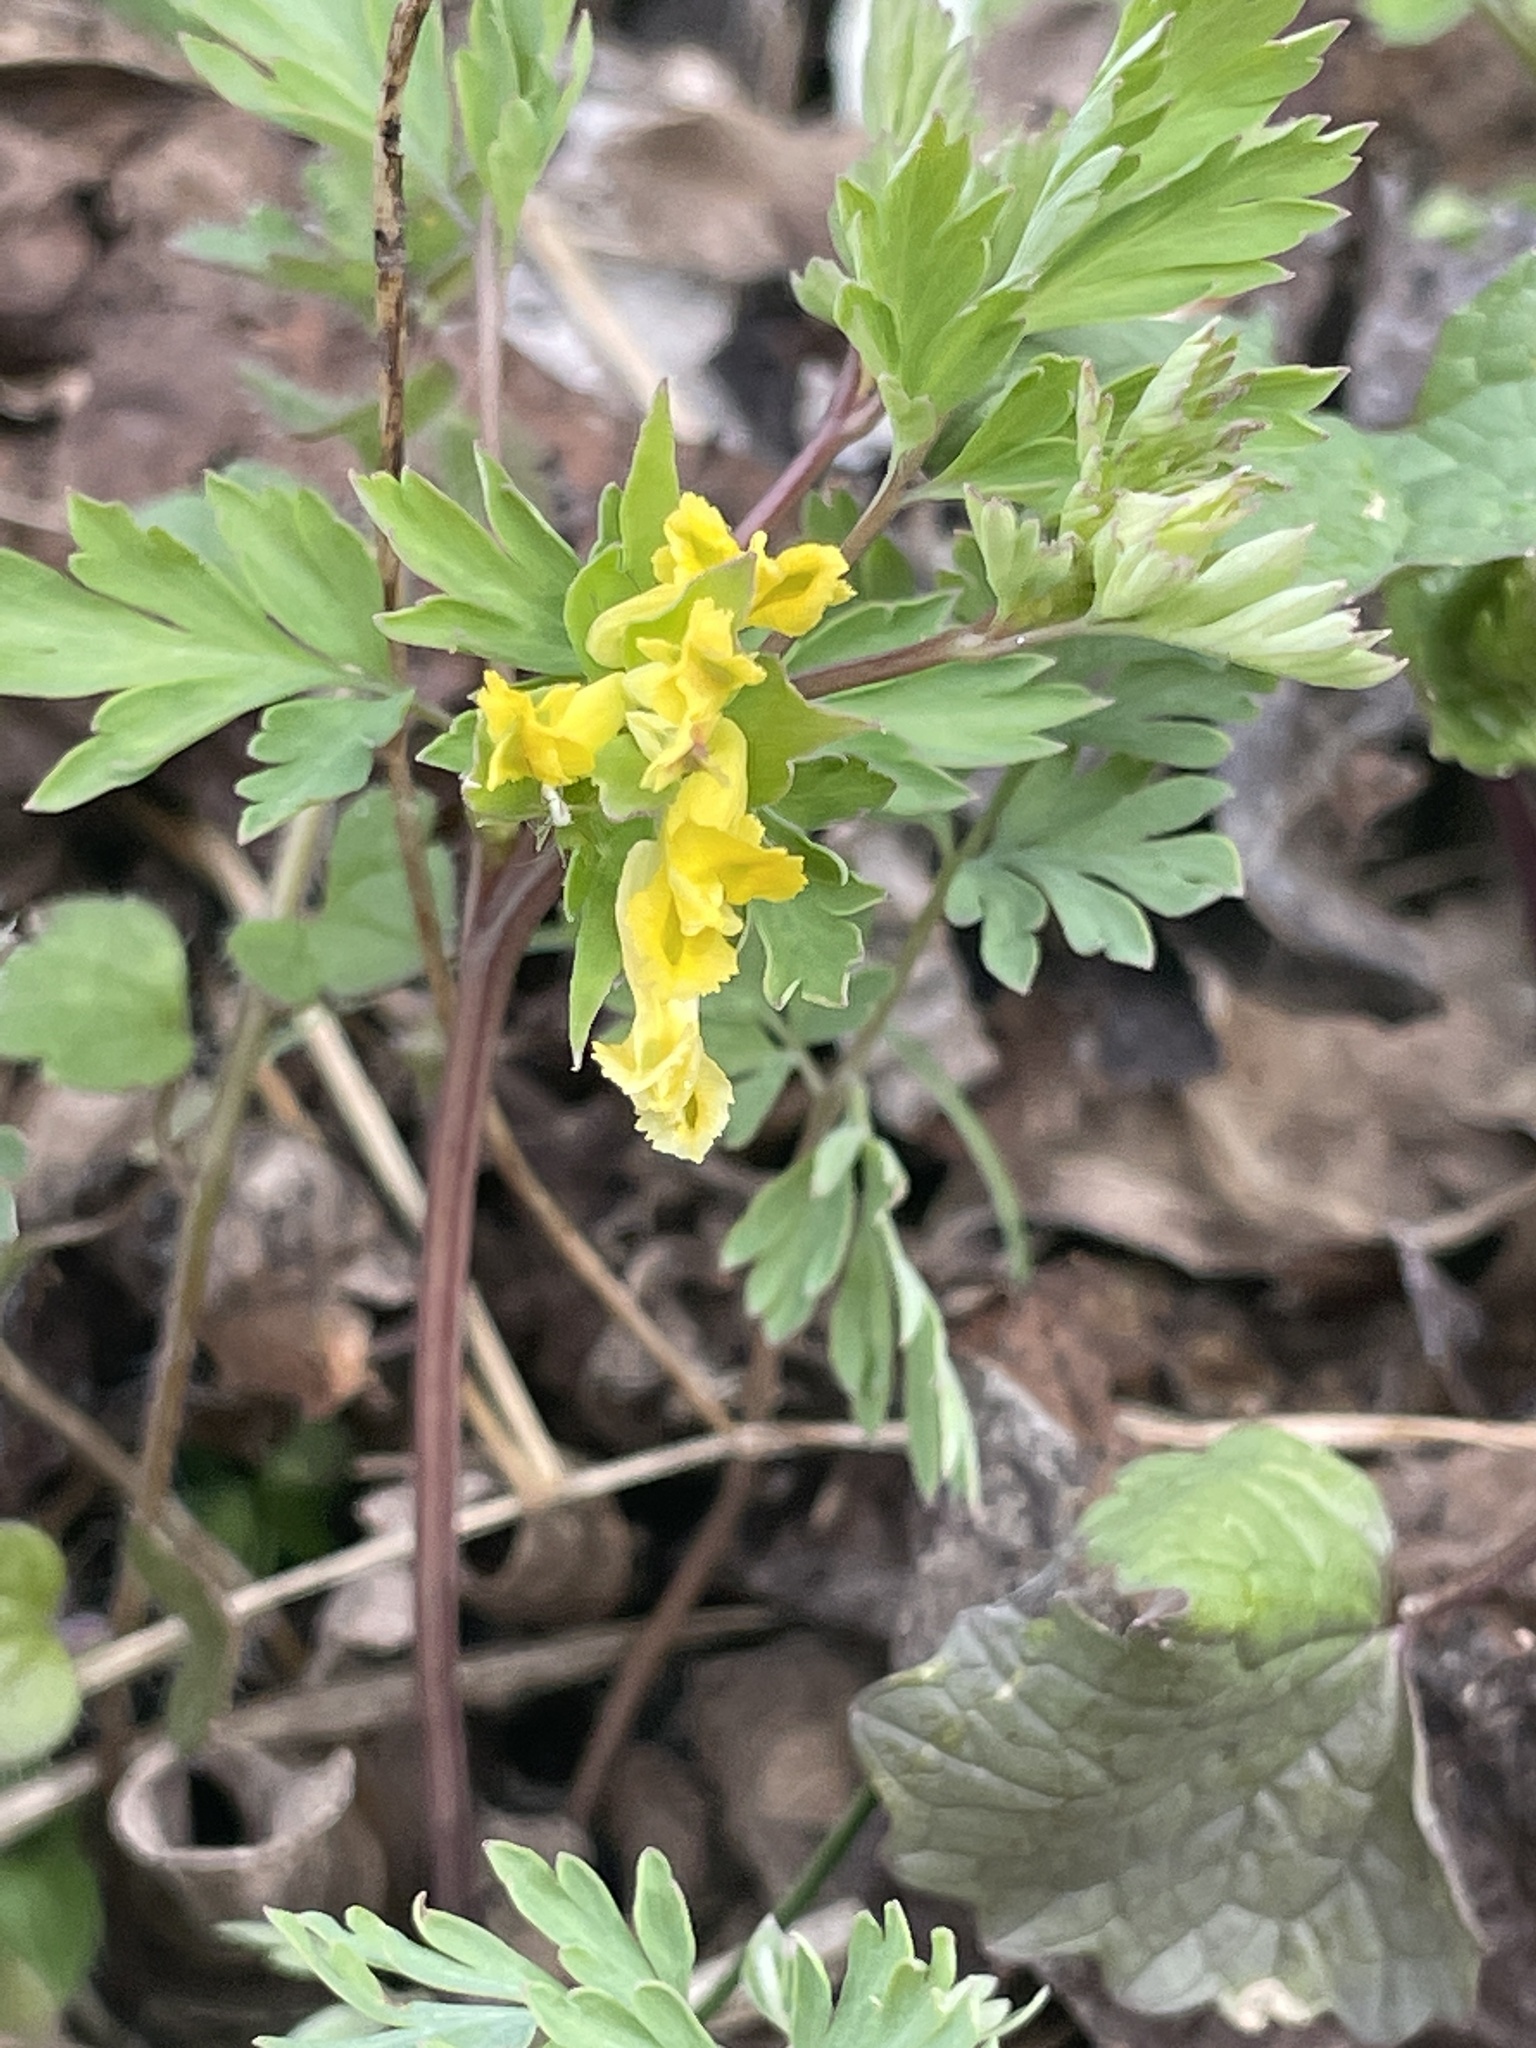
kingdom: Plantae
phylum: Tracheophyta
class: Magnoliopsida
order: Ranunculales
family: Papaveraceae
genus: Corydalis
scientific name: Corydalis flavula
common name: Yellow corydalis
